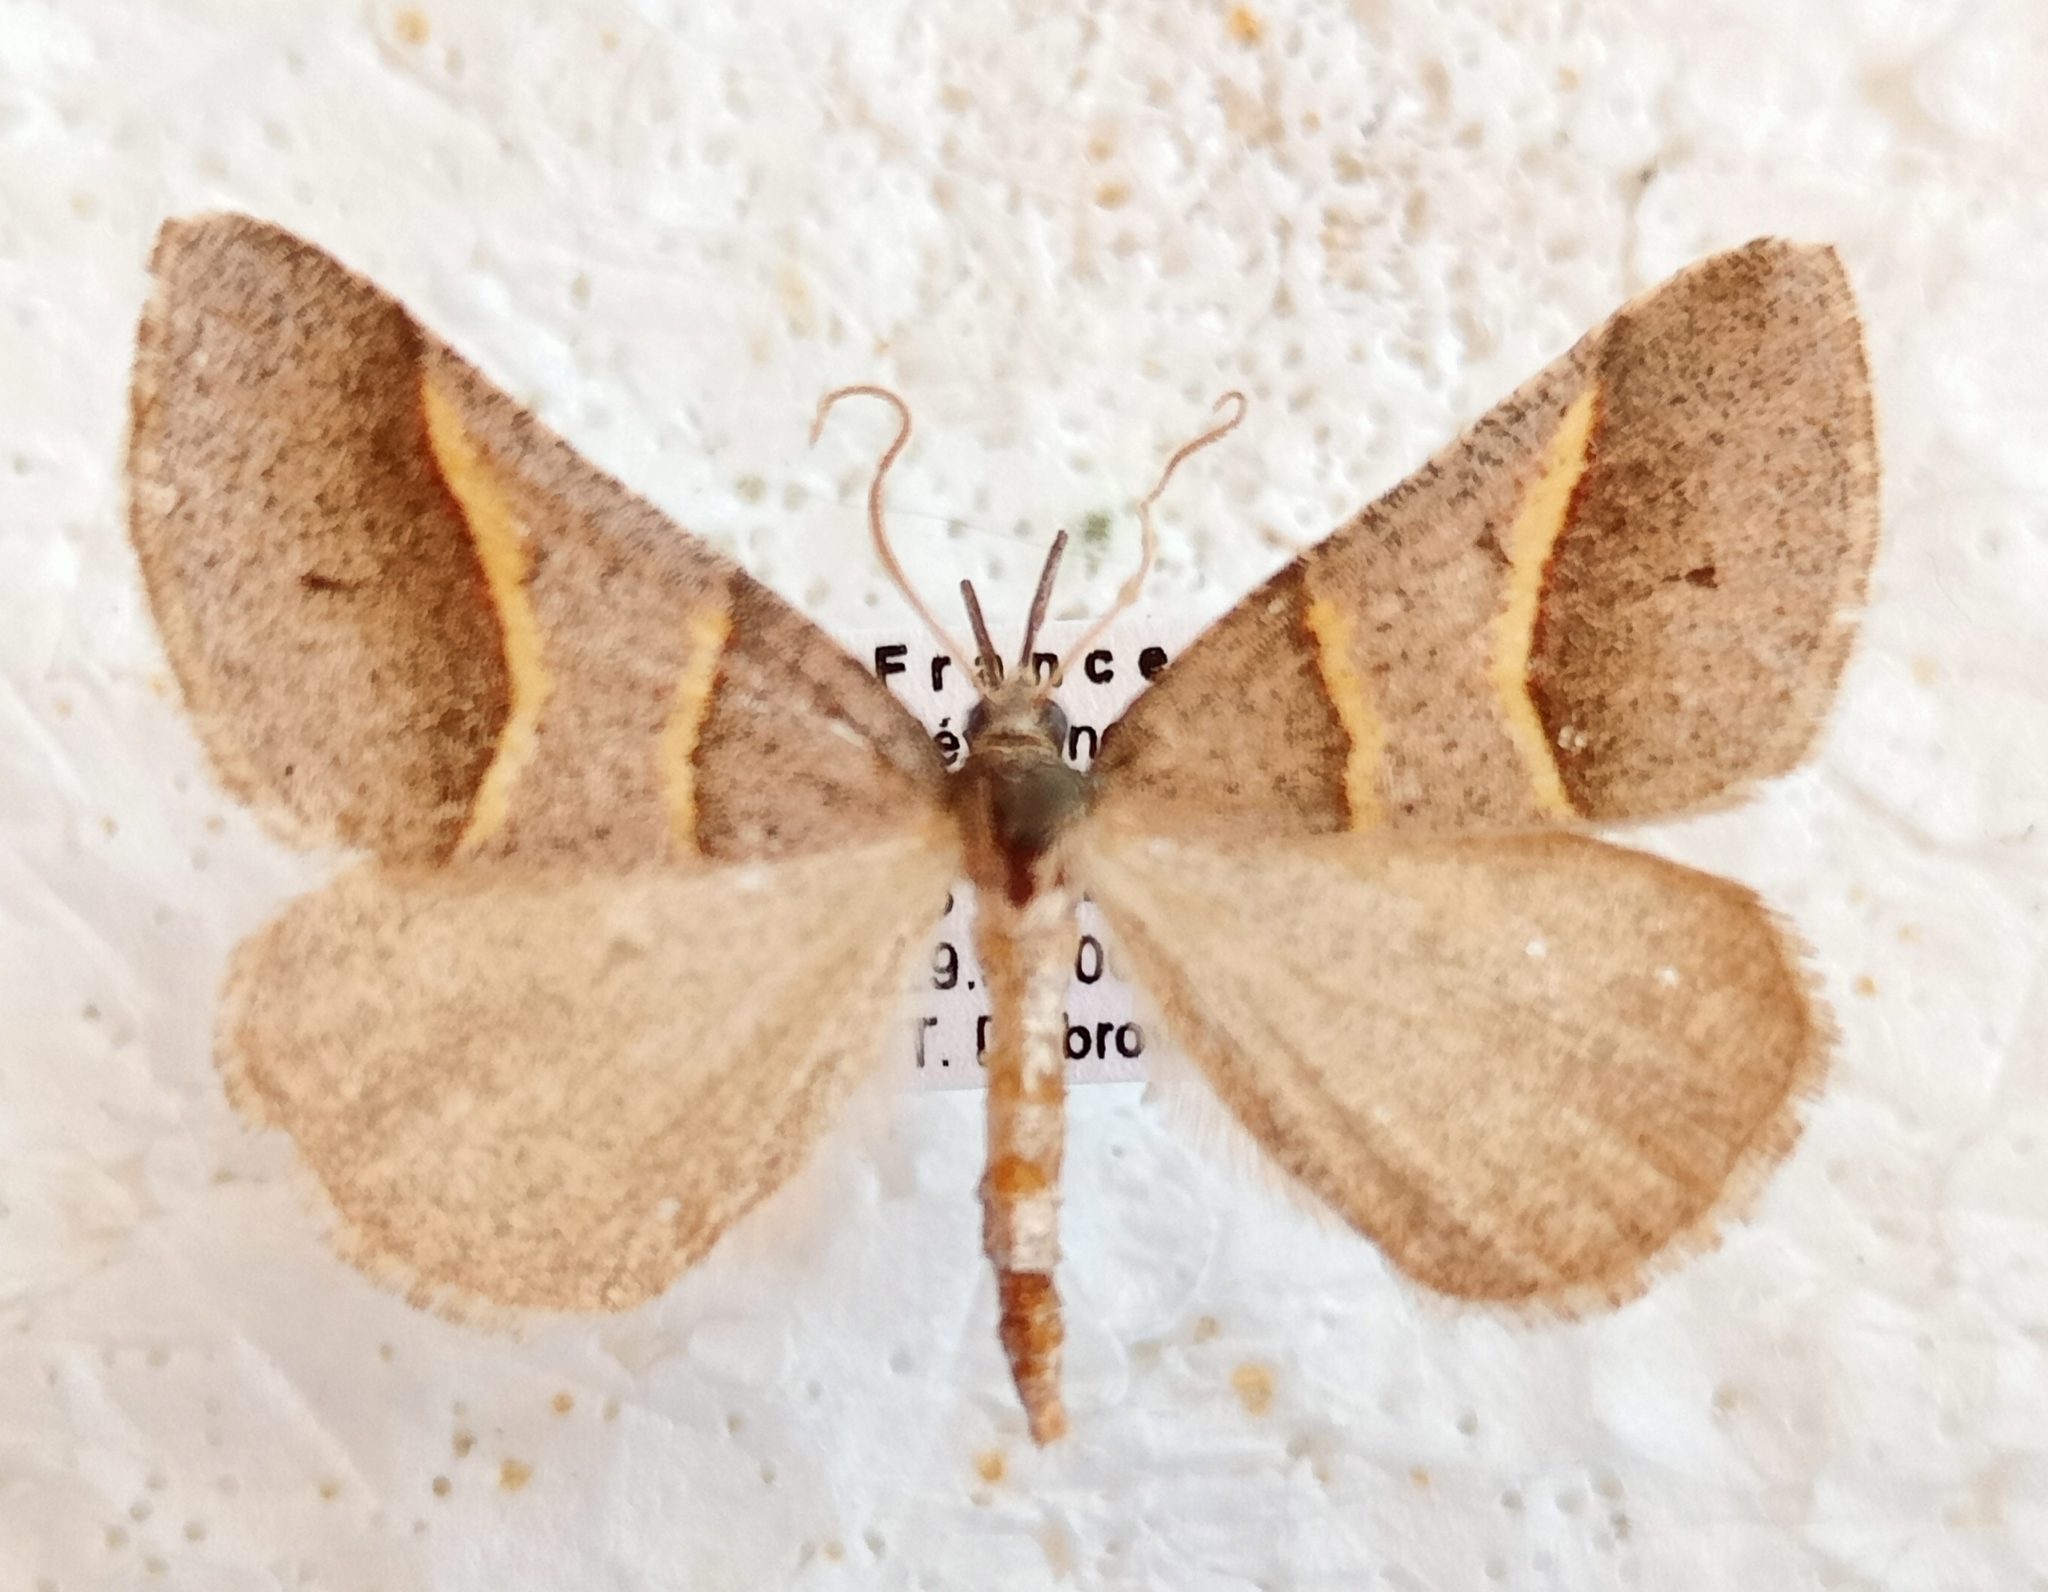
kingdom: Animalia
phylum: Arthropoda
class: Insecta
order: Lepidoptera
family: Pterophoridae
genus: Pterophorus
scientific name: Pterophorus Petrophora convergata
